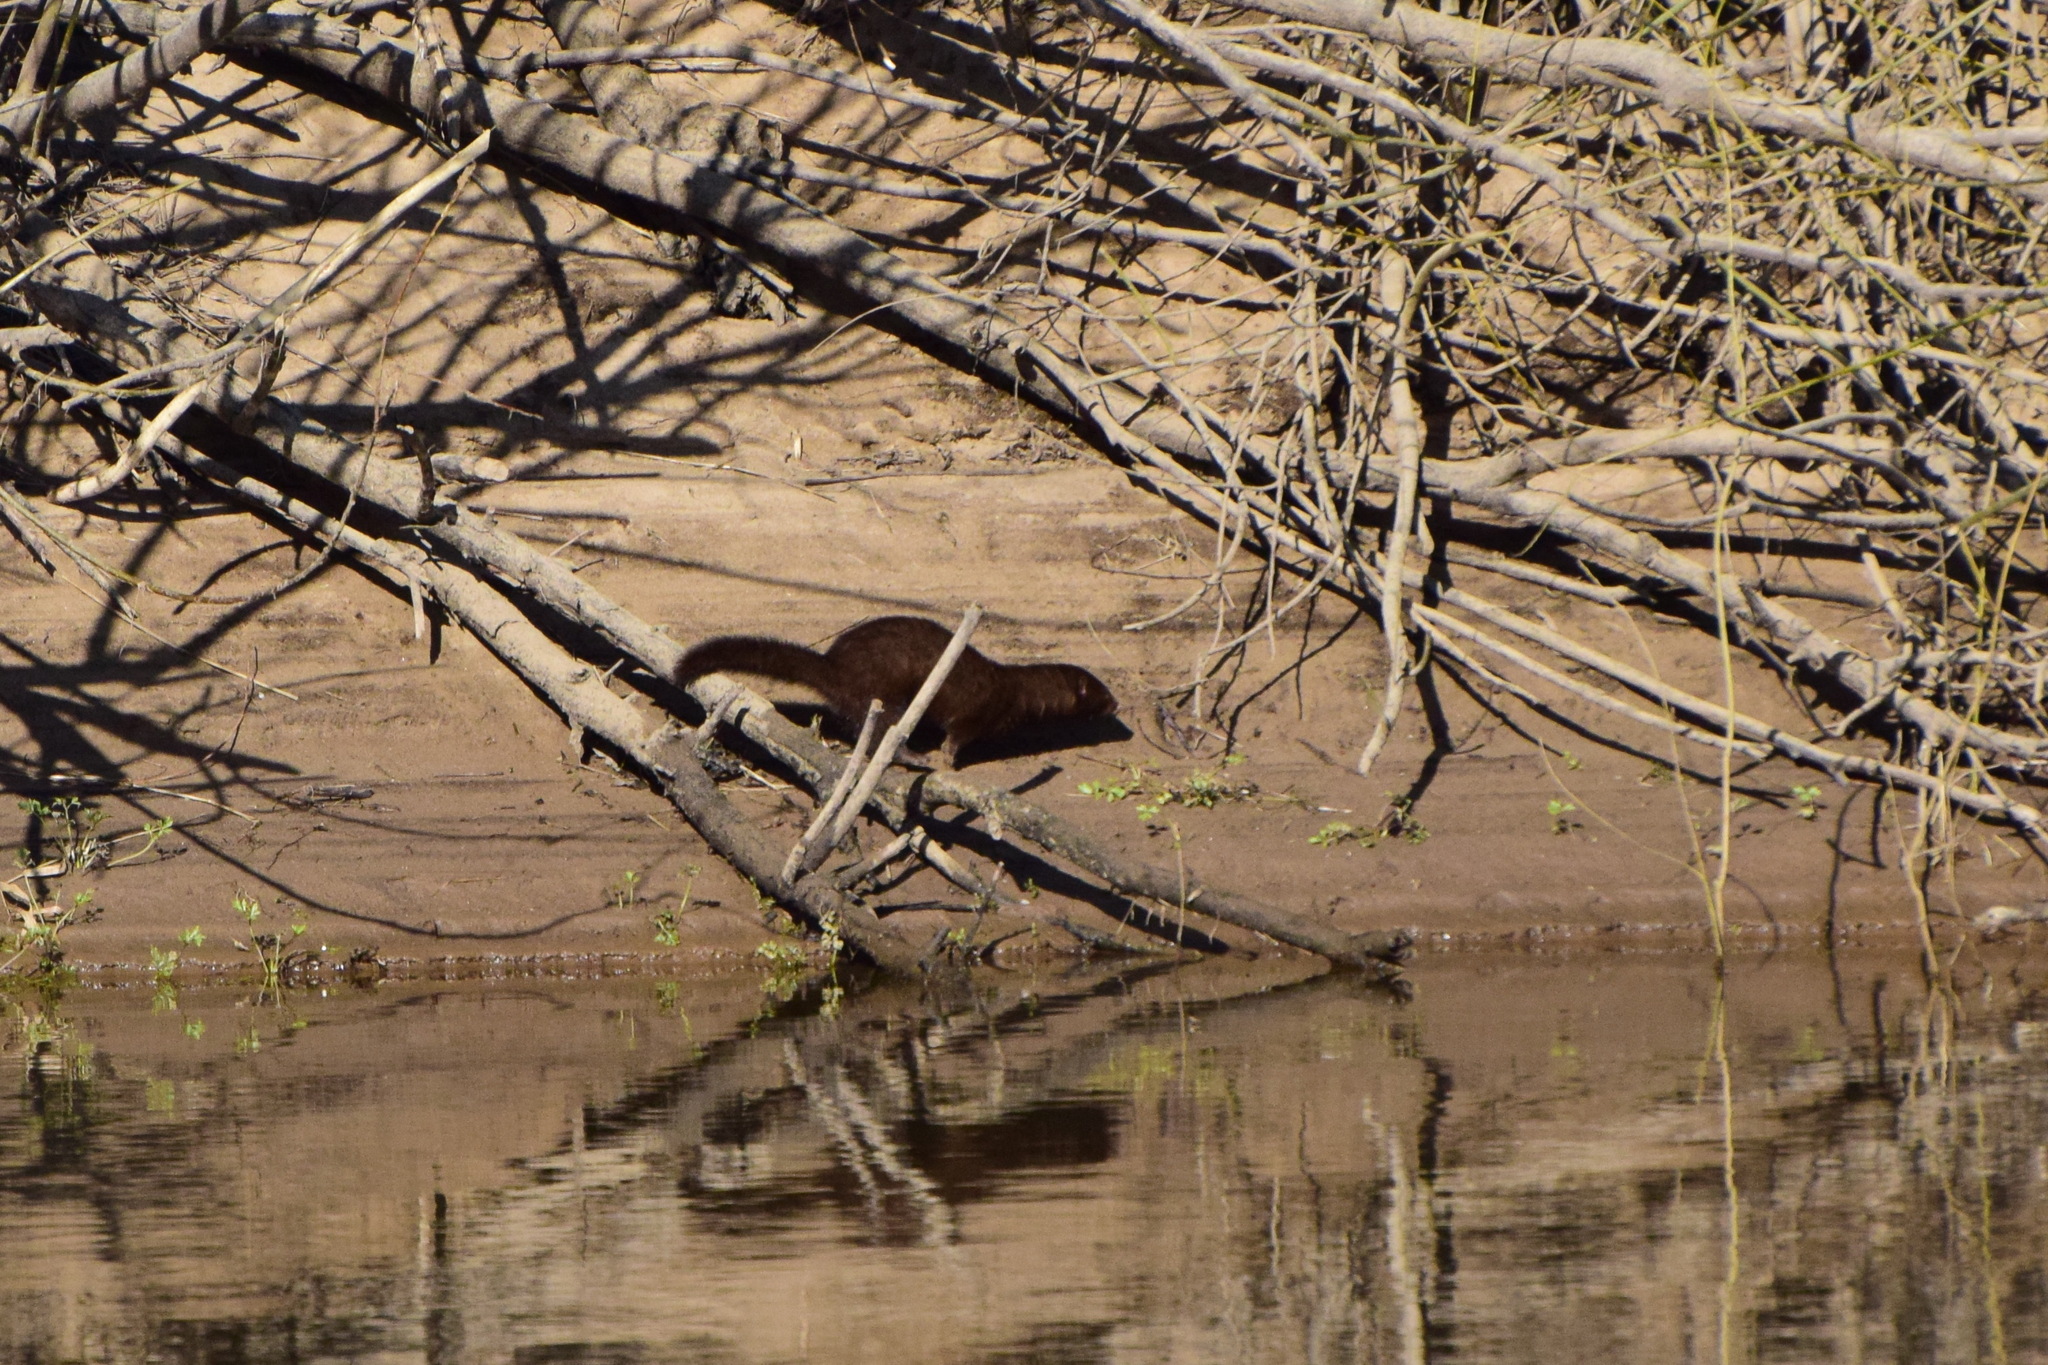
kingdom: Animalia
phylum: Chordata
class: Mammalia
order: Carnivora
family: Mustelidae
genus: Mustela
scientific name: Mustela
